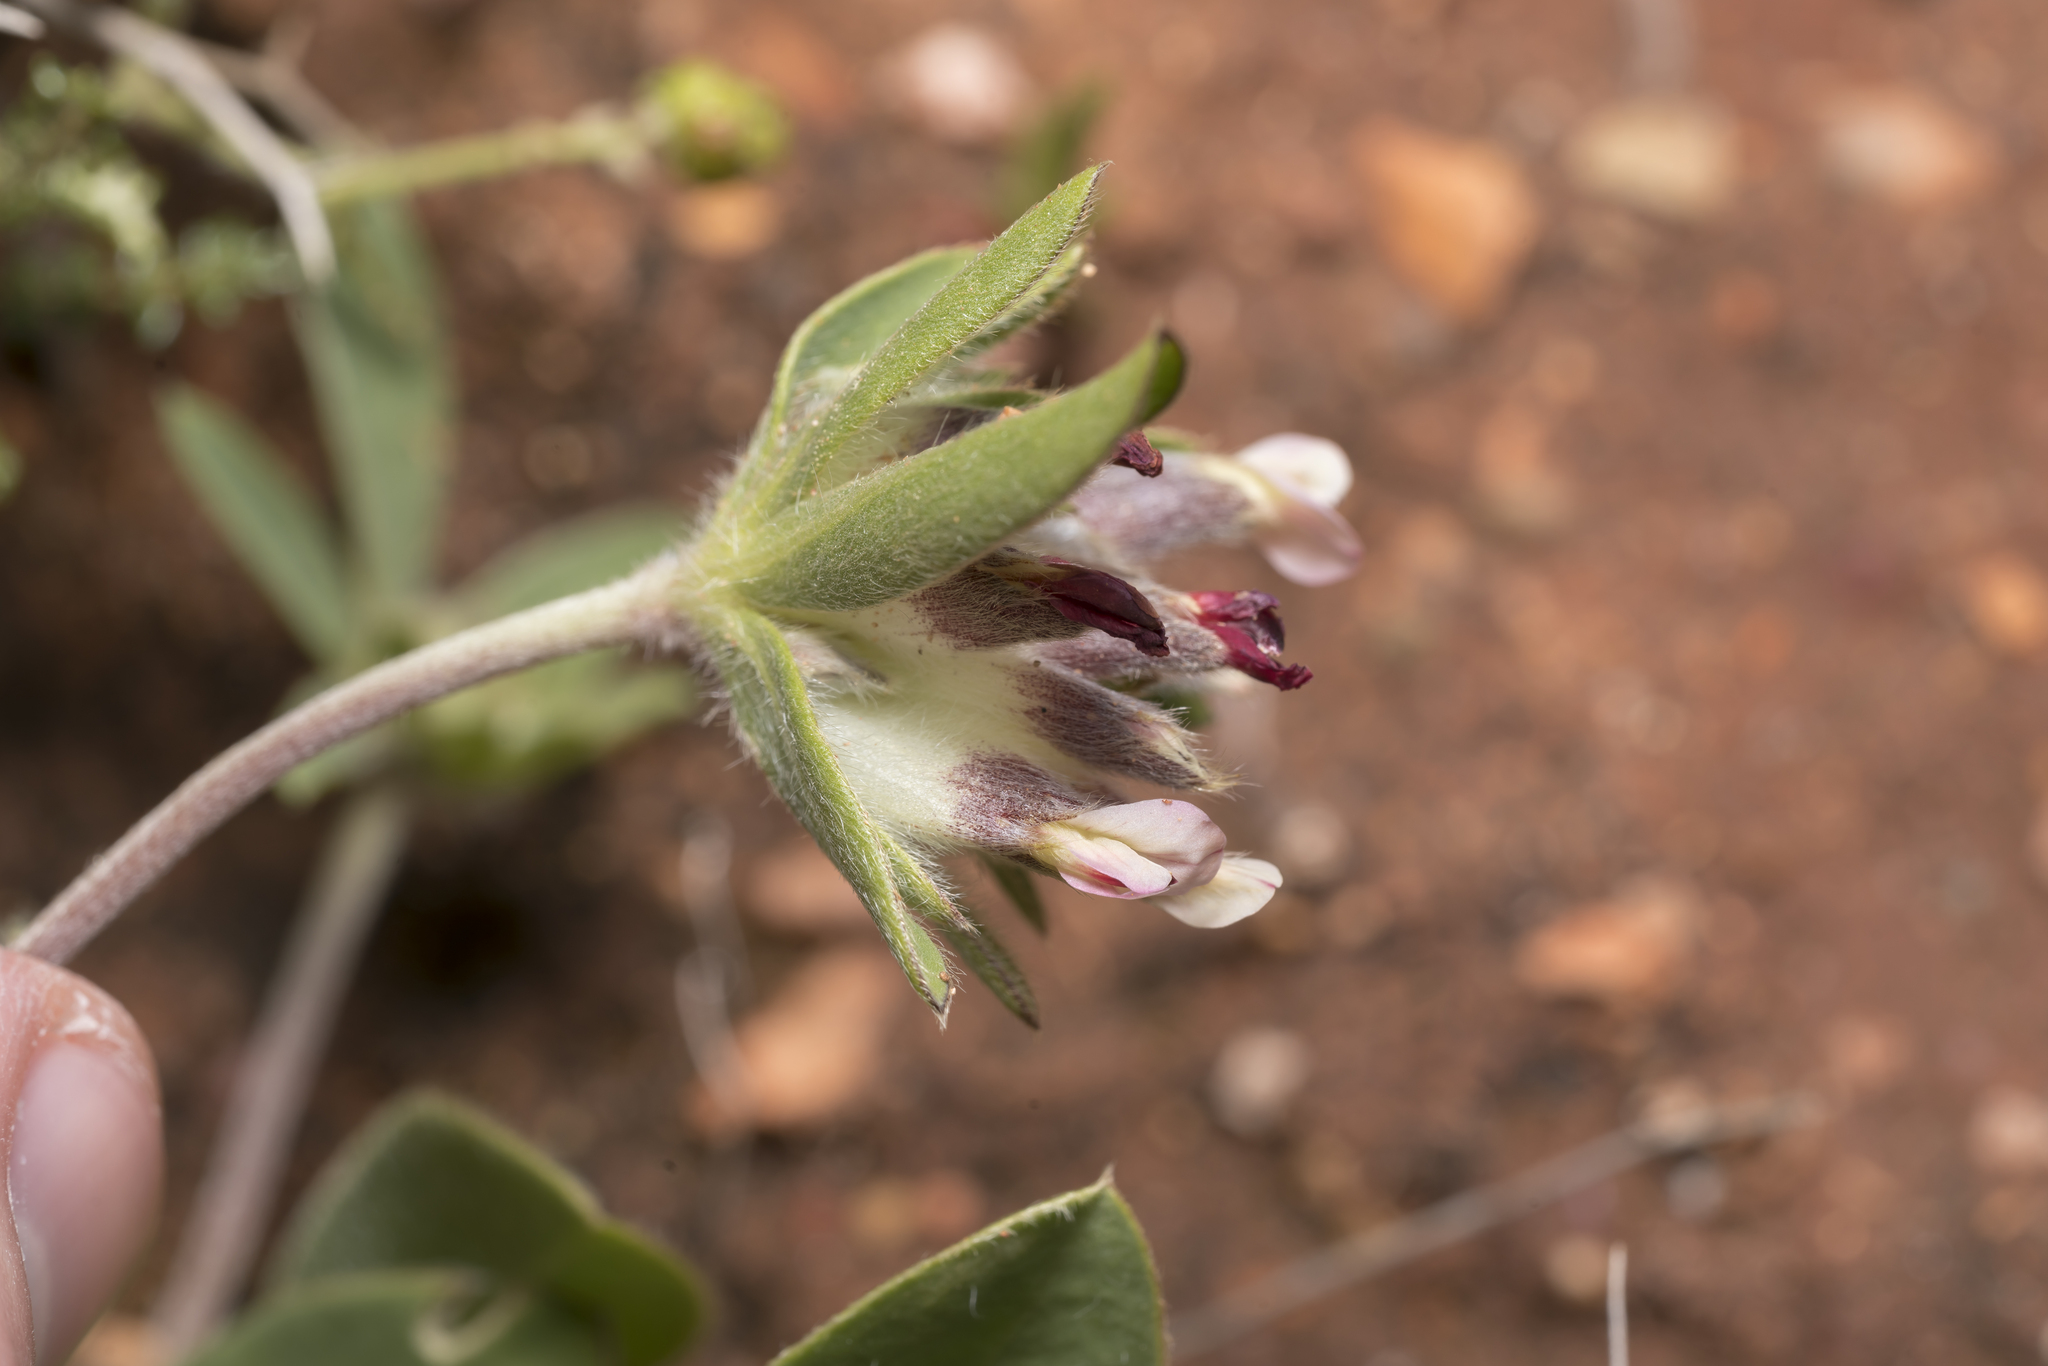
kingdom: Plantae
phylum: Tracheophyta
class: Magnoliopsida
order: Fabales
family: Fabaceae
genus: Anthyllis
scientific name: Anthyllis vulneraria
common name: Kidney vetch
